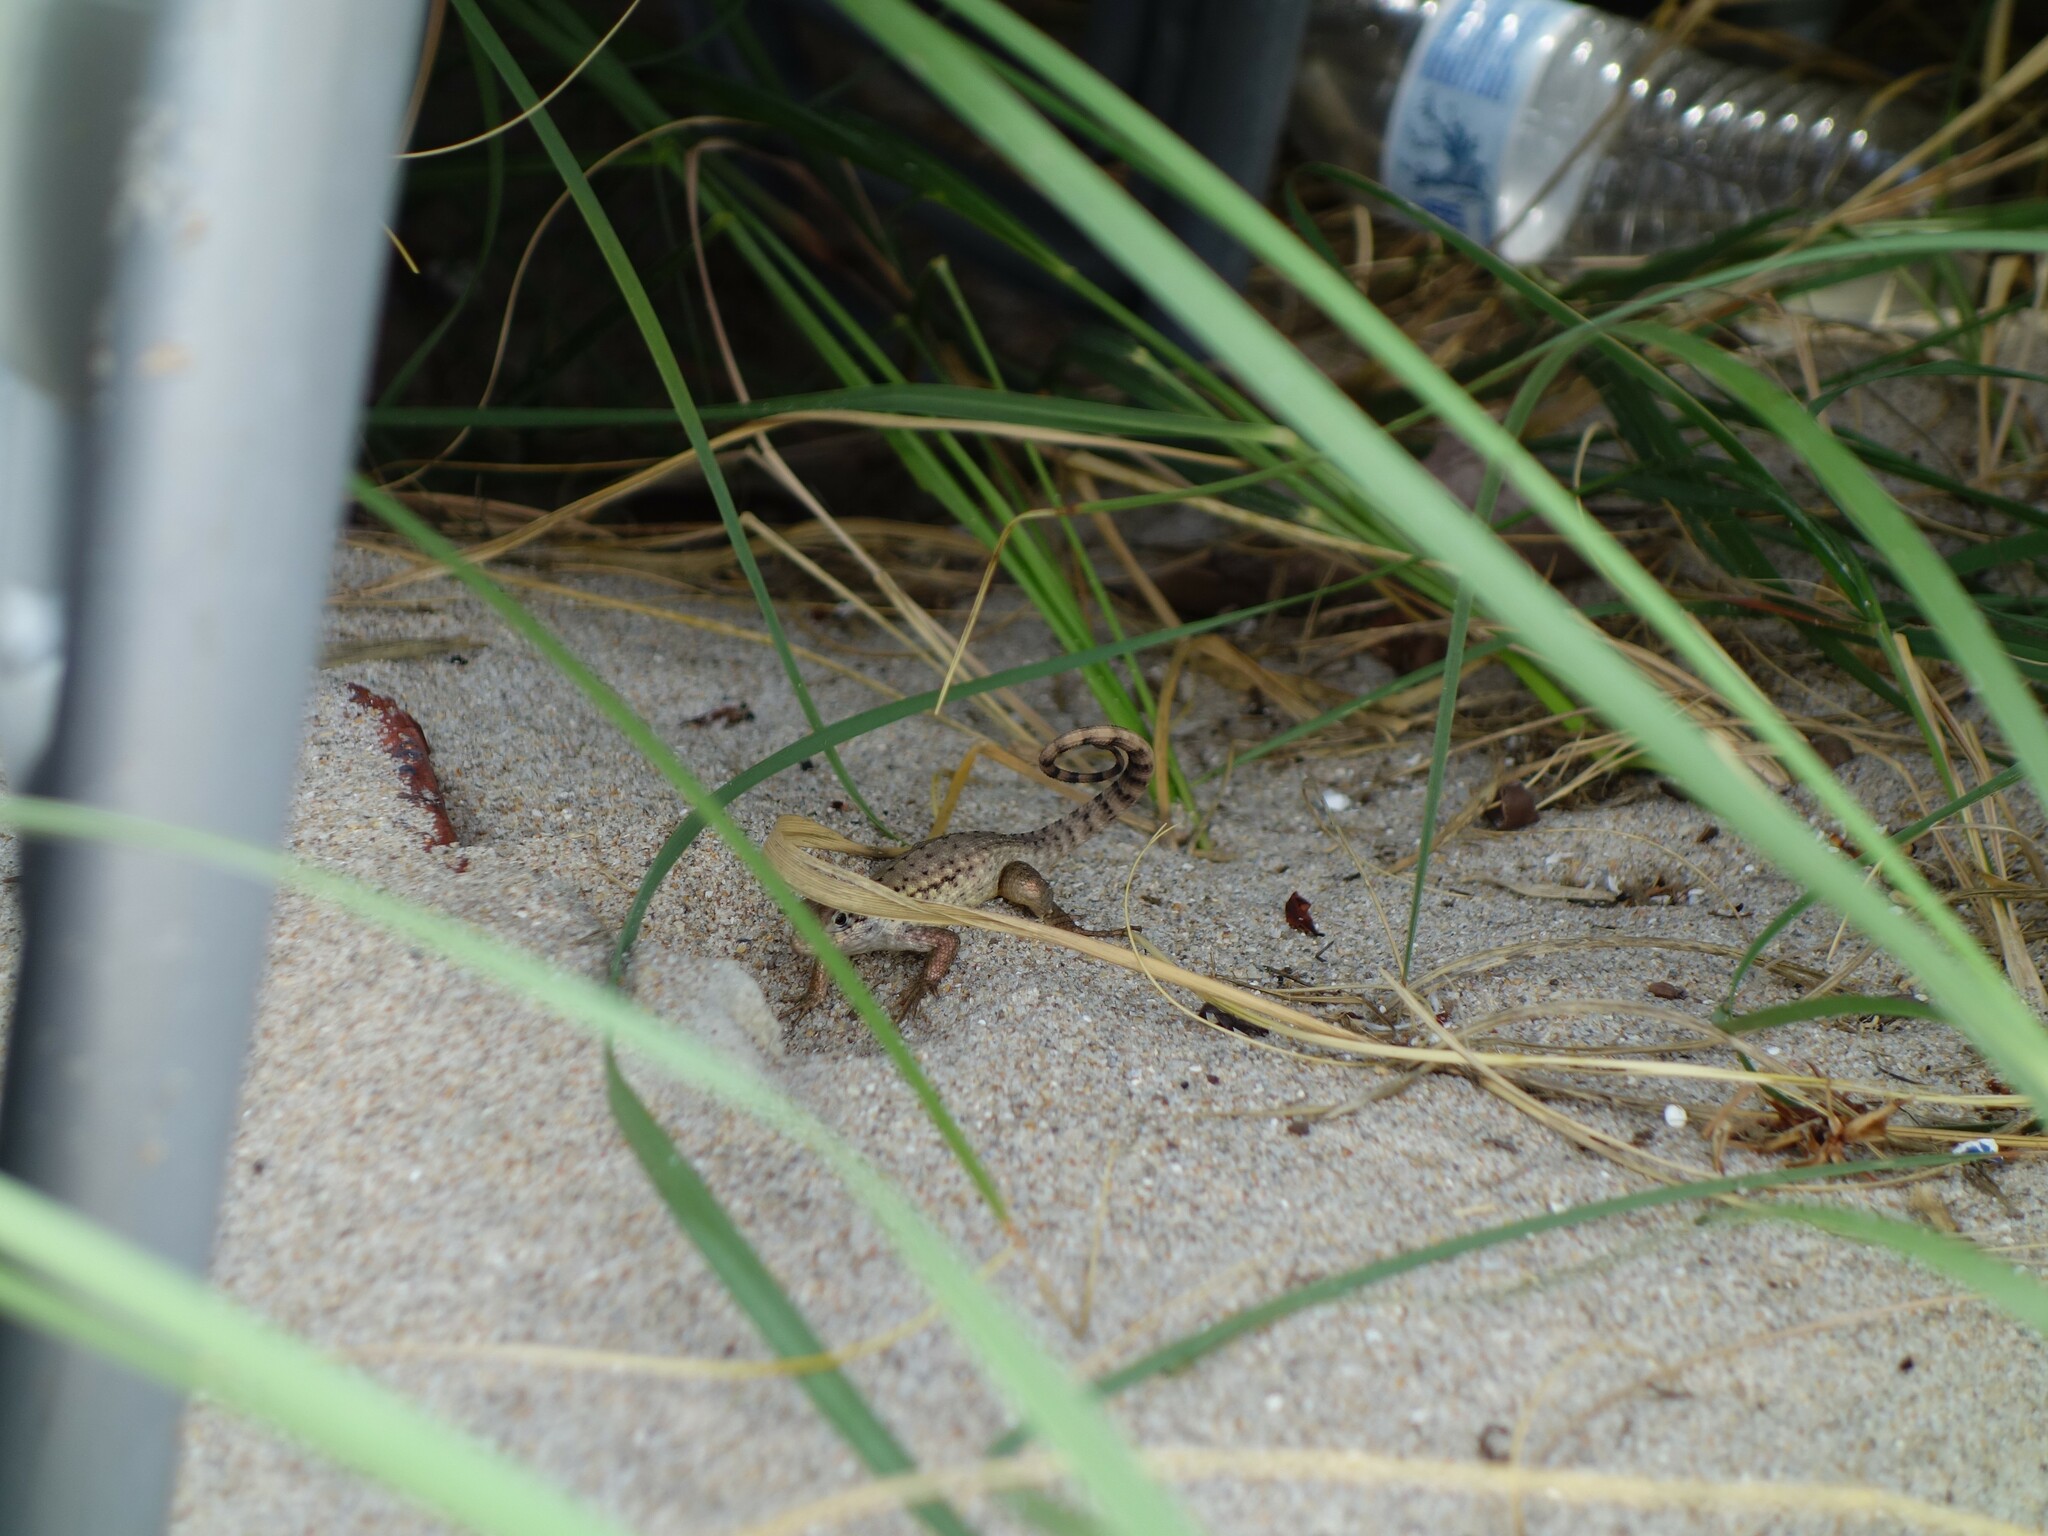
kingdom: Animalia
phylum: Chordata
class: Squamata
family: Leiocephalidae
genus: Leiocephalus
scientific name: Leiocephalus carinatus
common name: Northern curly-tailed lizard
